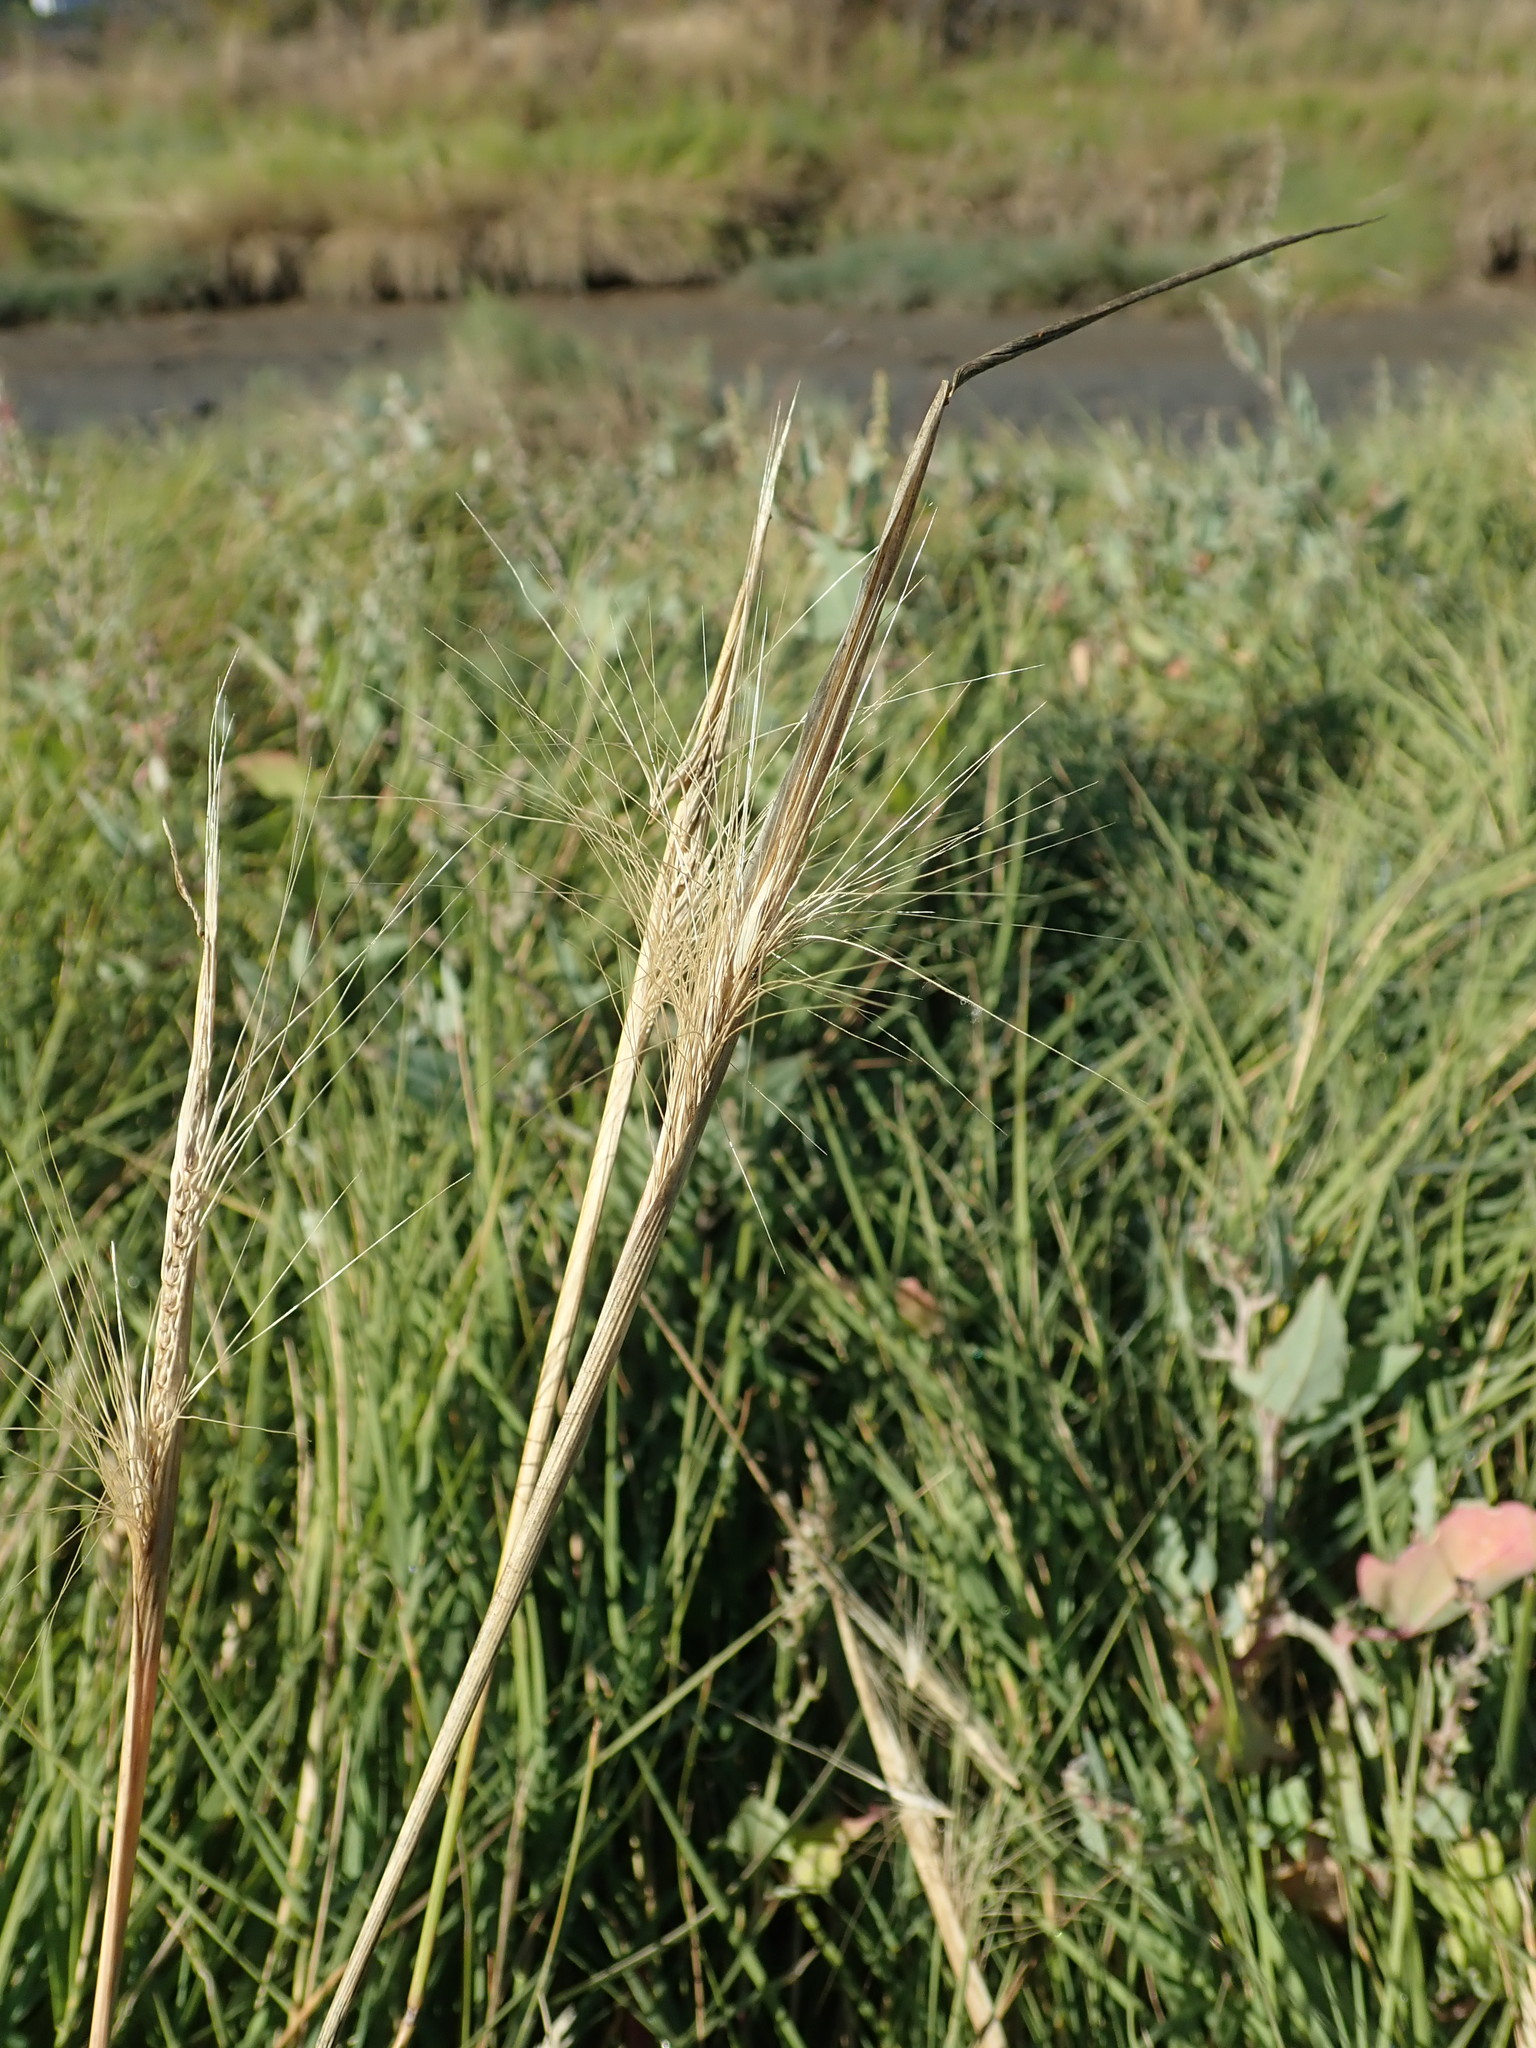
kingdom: Plantae
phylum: Tracheophyta
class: Liliopsida
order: Poales
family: Poaceae
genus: Hordeum
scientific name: Hordeum jubatum
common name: Foxtail barley
